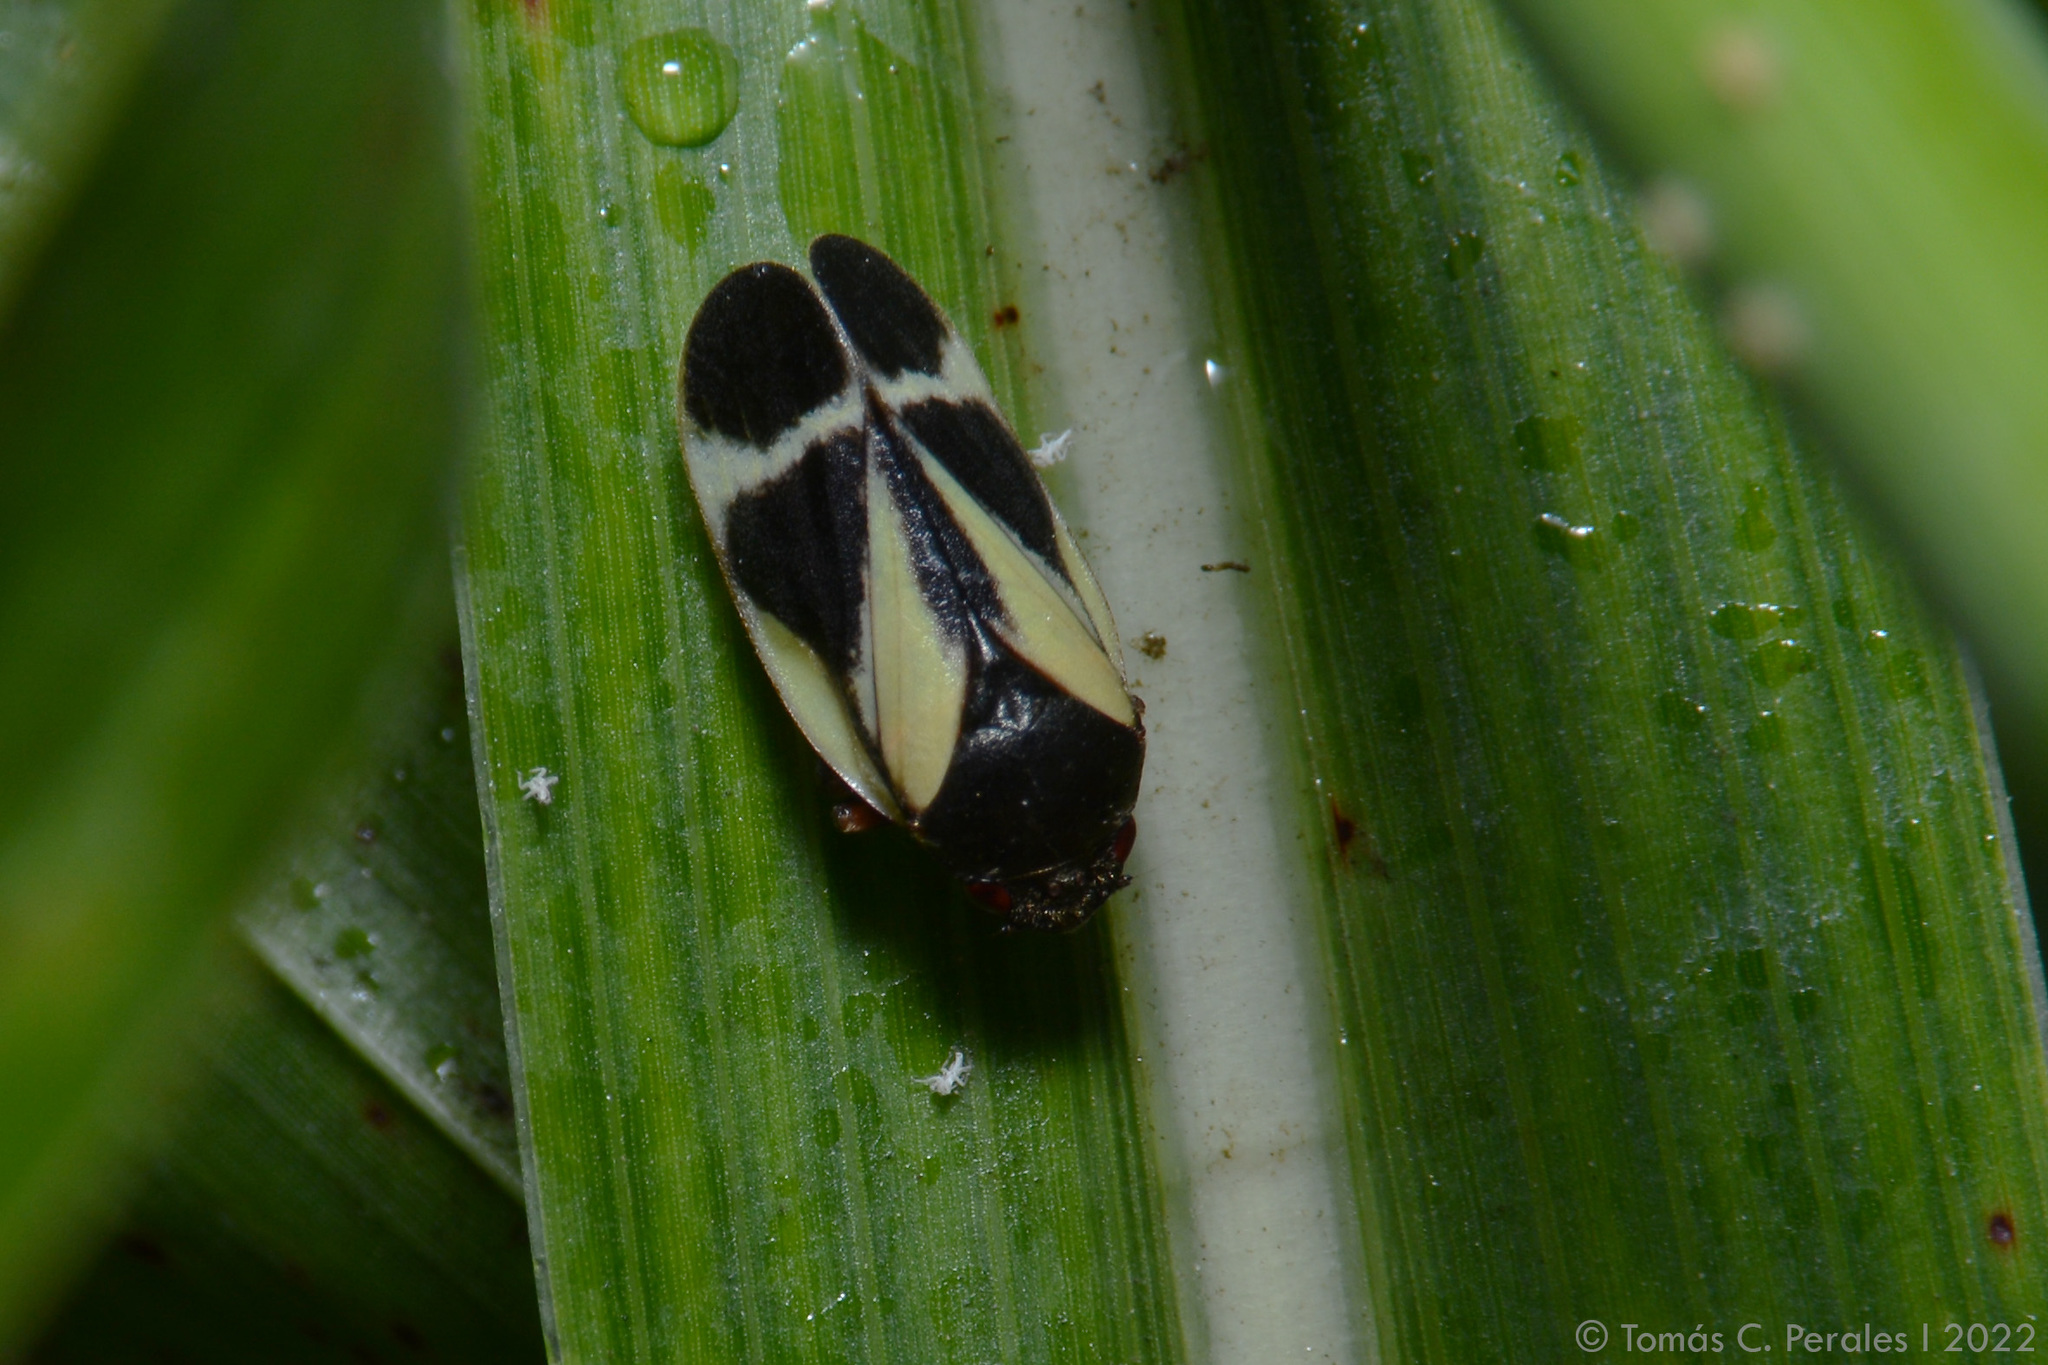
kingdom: Animalia
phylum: Arthropoda
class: Insecta
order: Hemiptera
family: Cercopidae
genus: Notozulia
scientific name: Notozulia entreriana
